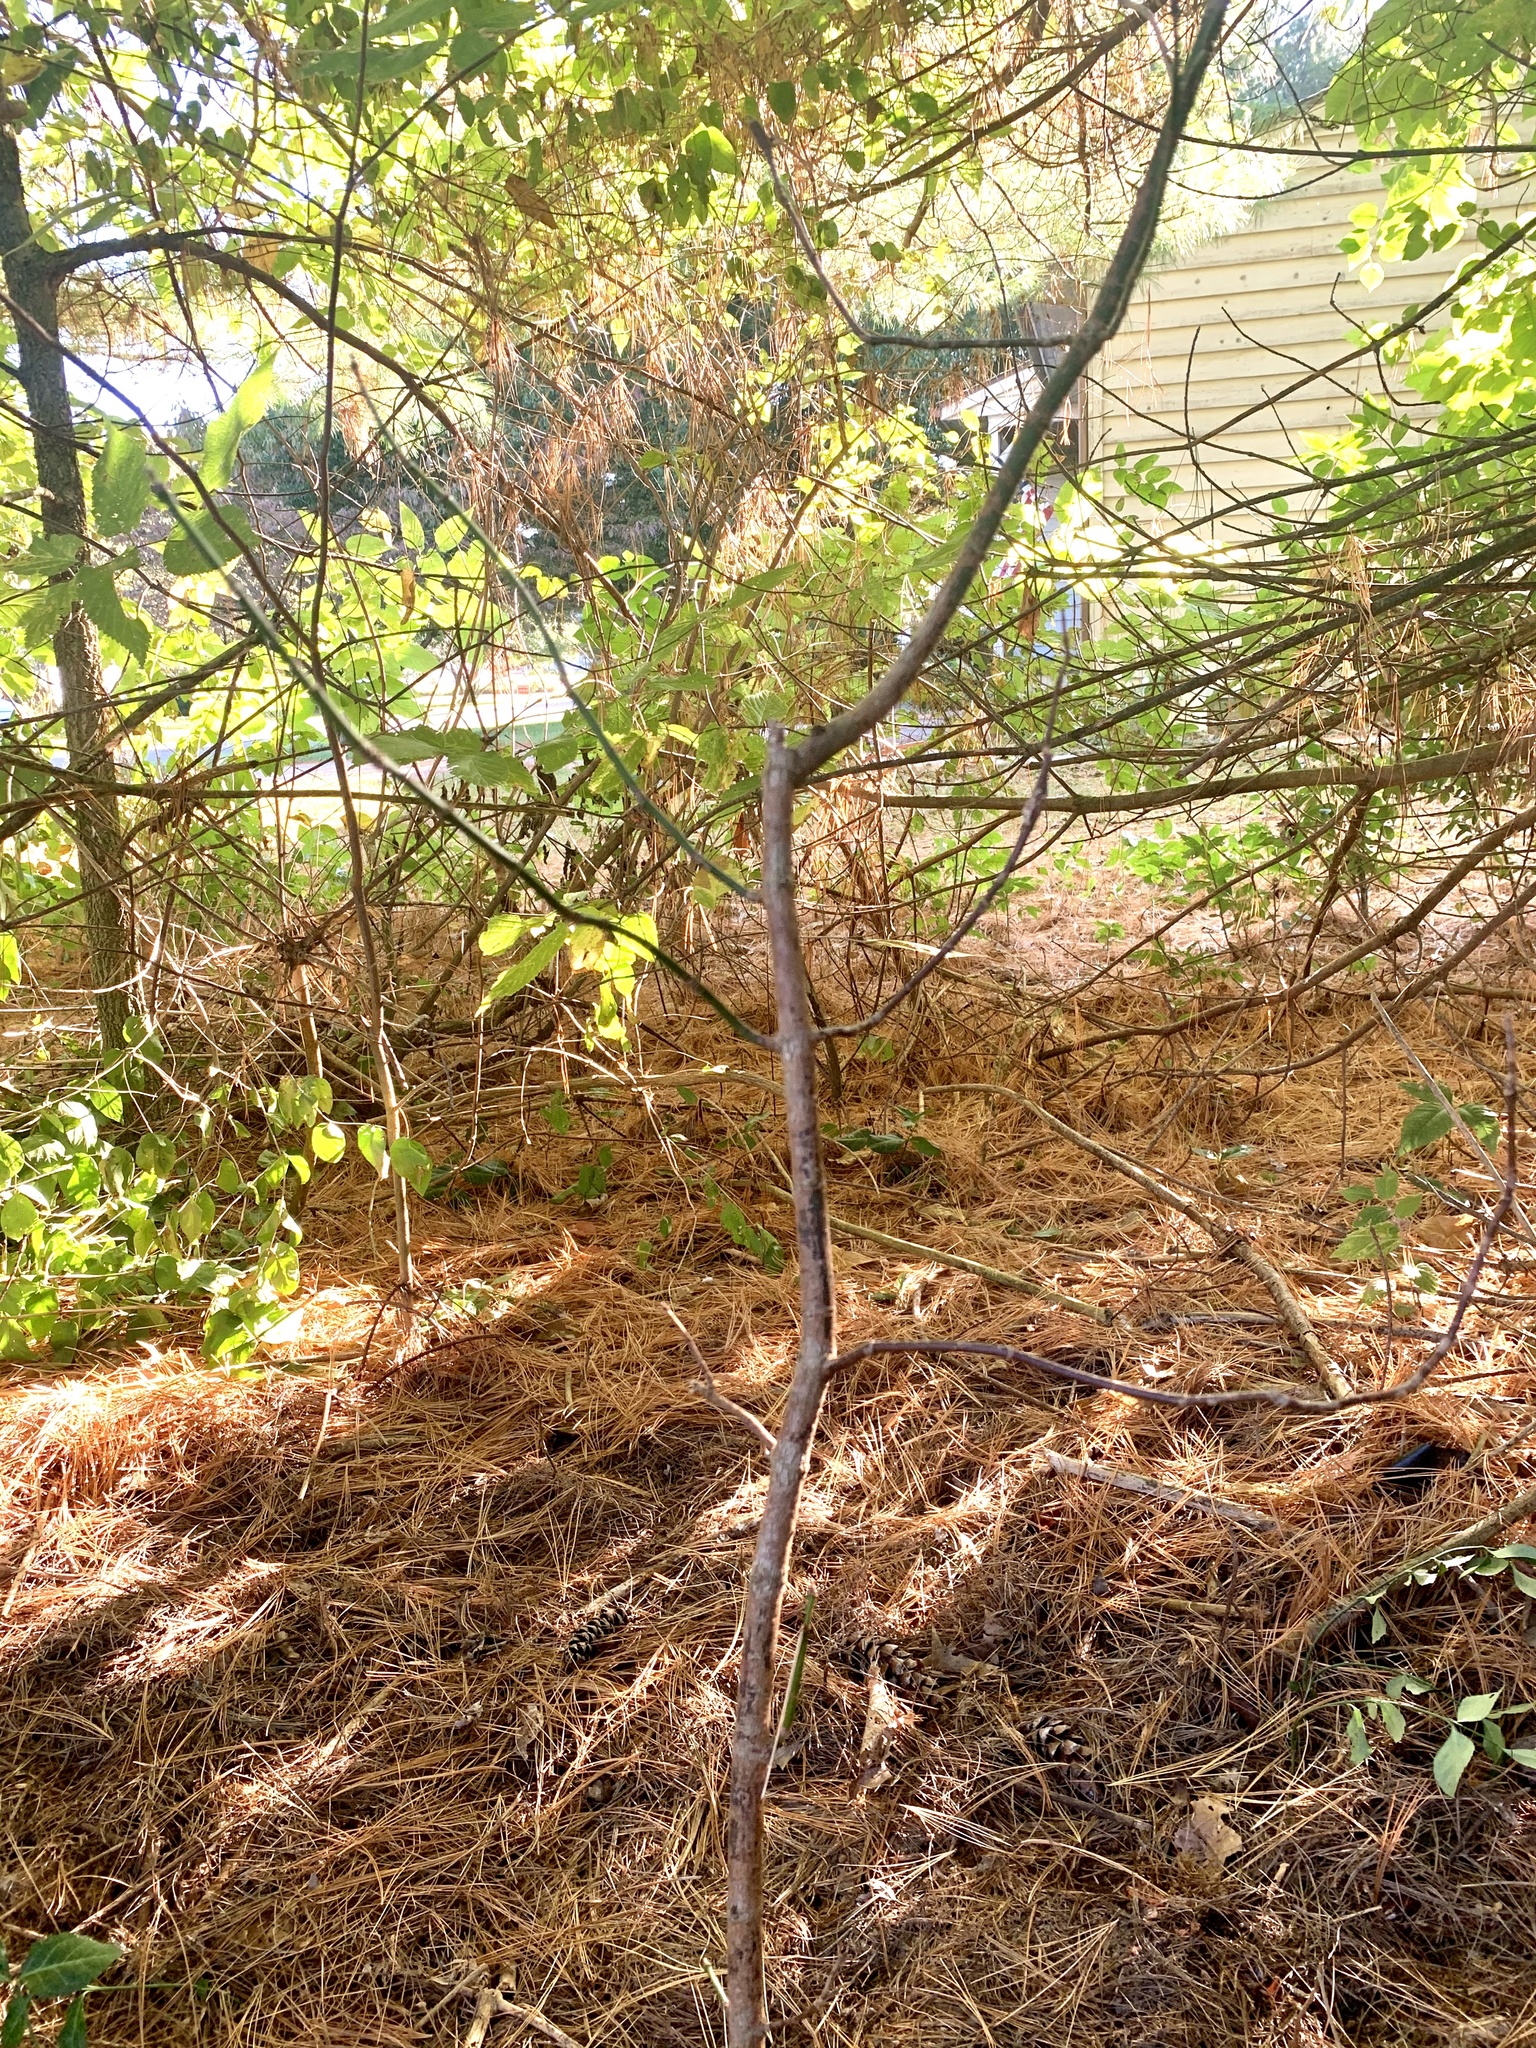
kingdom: Plantae
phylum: Tracheophyta
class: Magnoliopsida
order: Sapindales
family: Sapindaceae
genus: Acer
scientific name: Acer negundo
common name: Ashleaf maple
